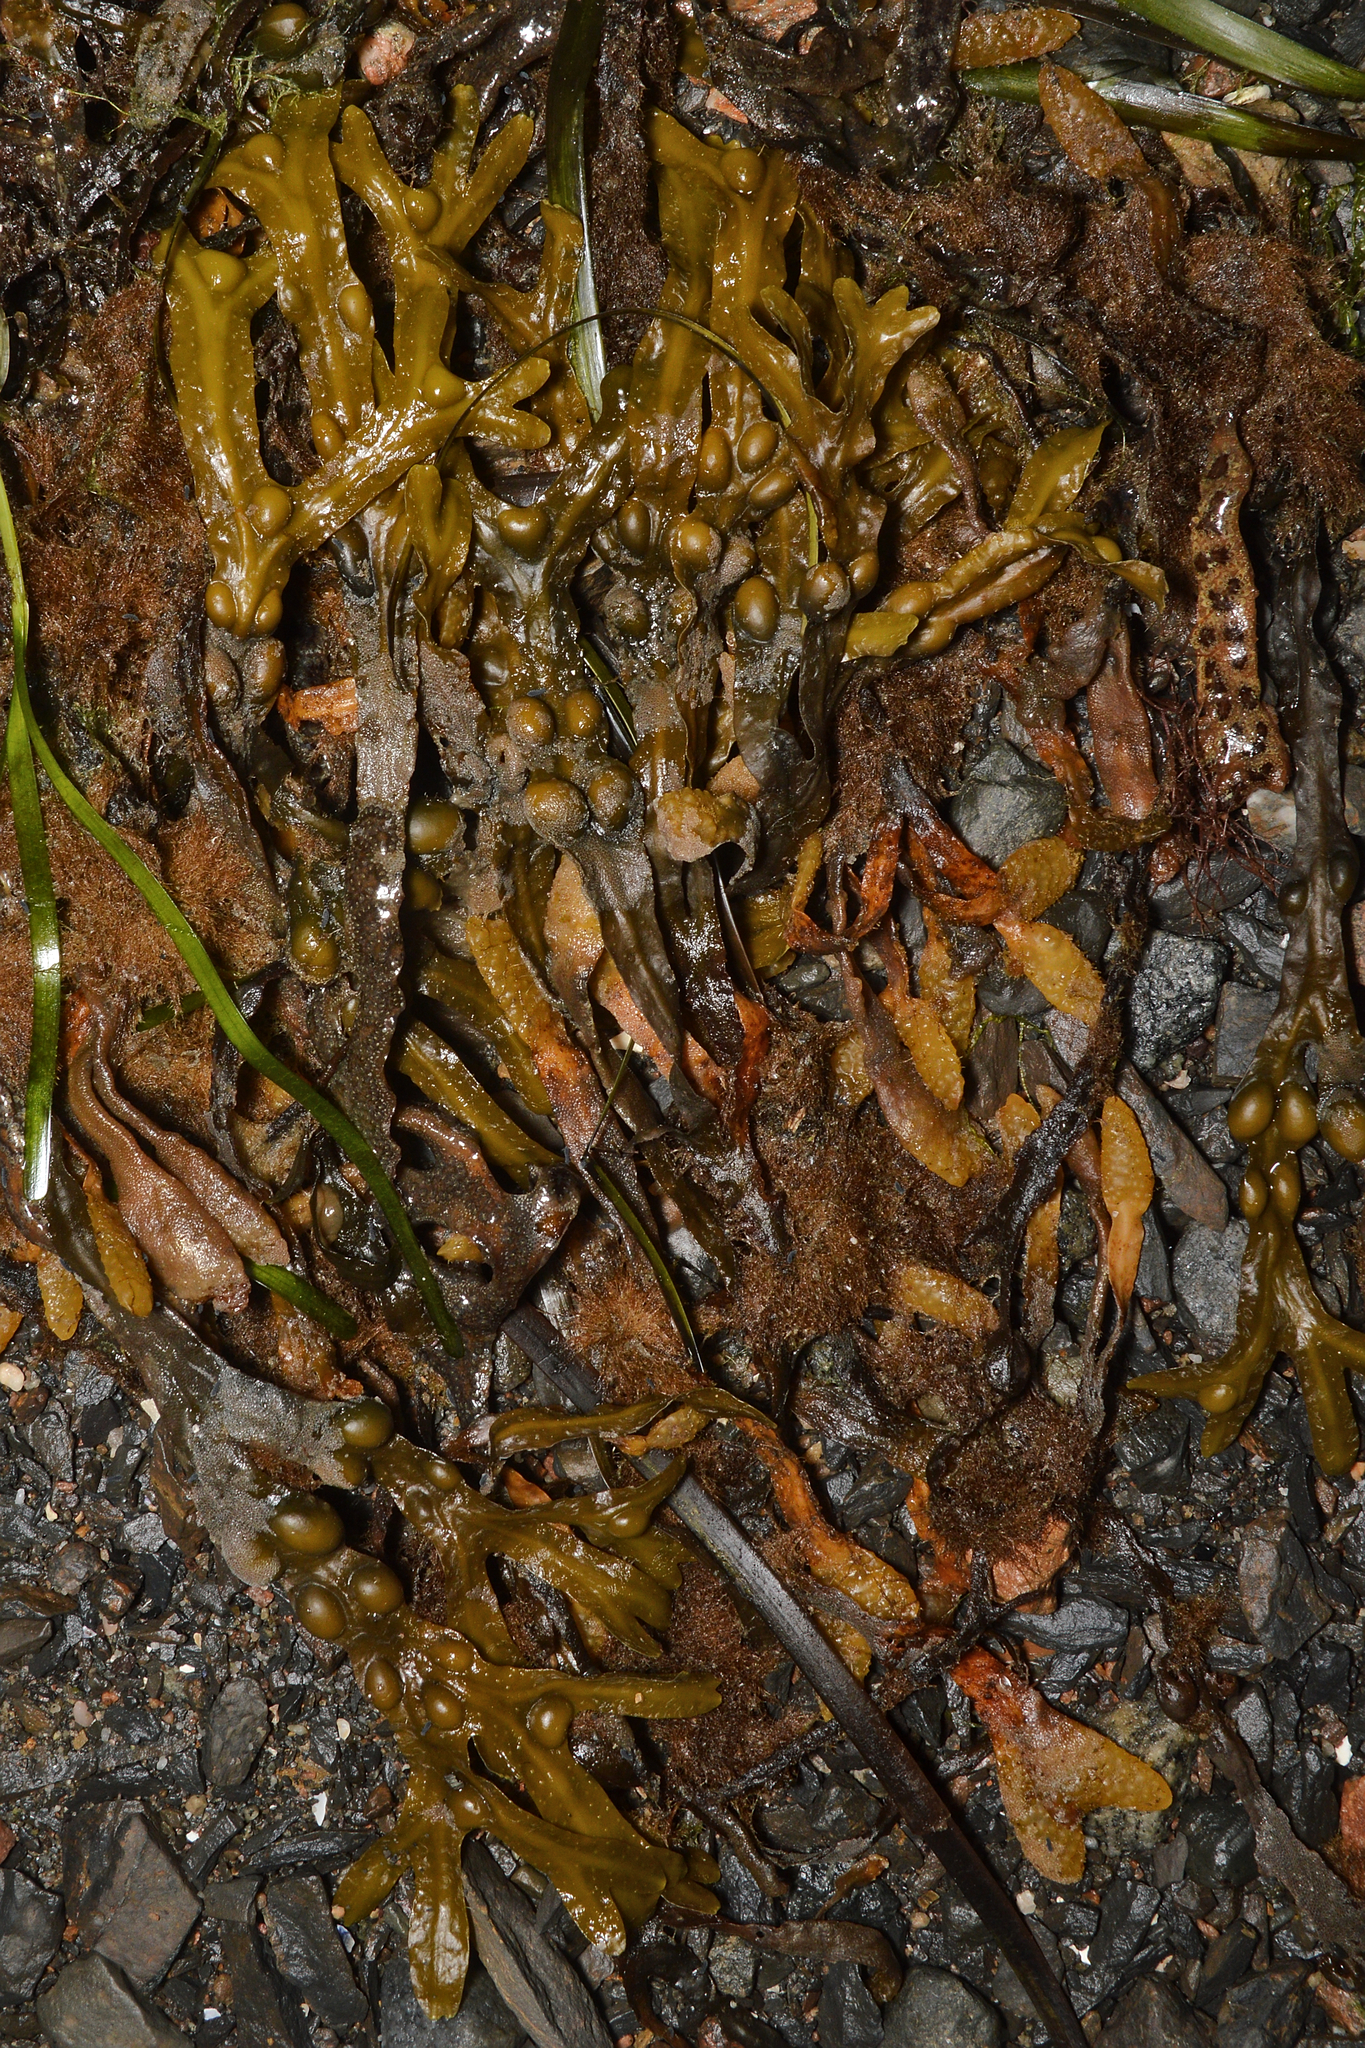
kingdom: Chromista
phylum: Ochrophyta
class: Phaeophyceae
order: Fucales
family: Fucaceae
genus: Fucus
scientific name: Fucus vesiculosus
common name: Bladder wrack
